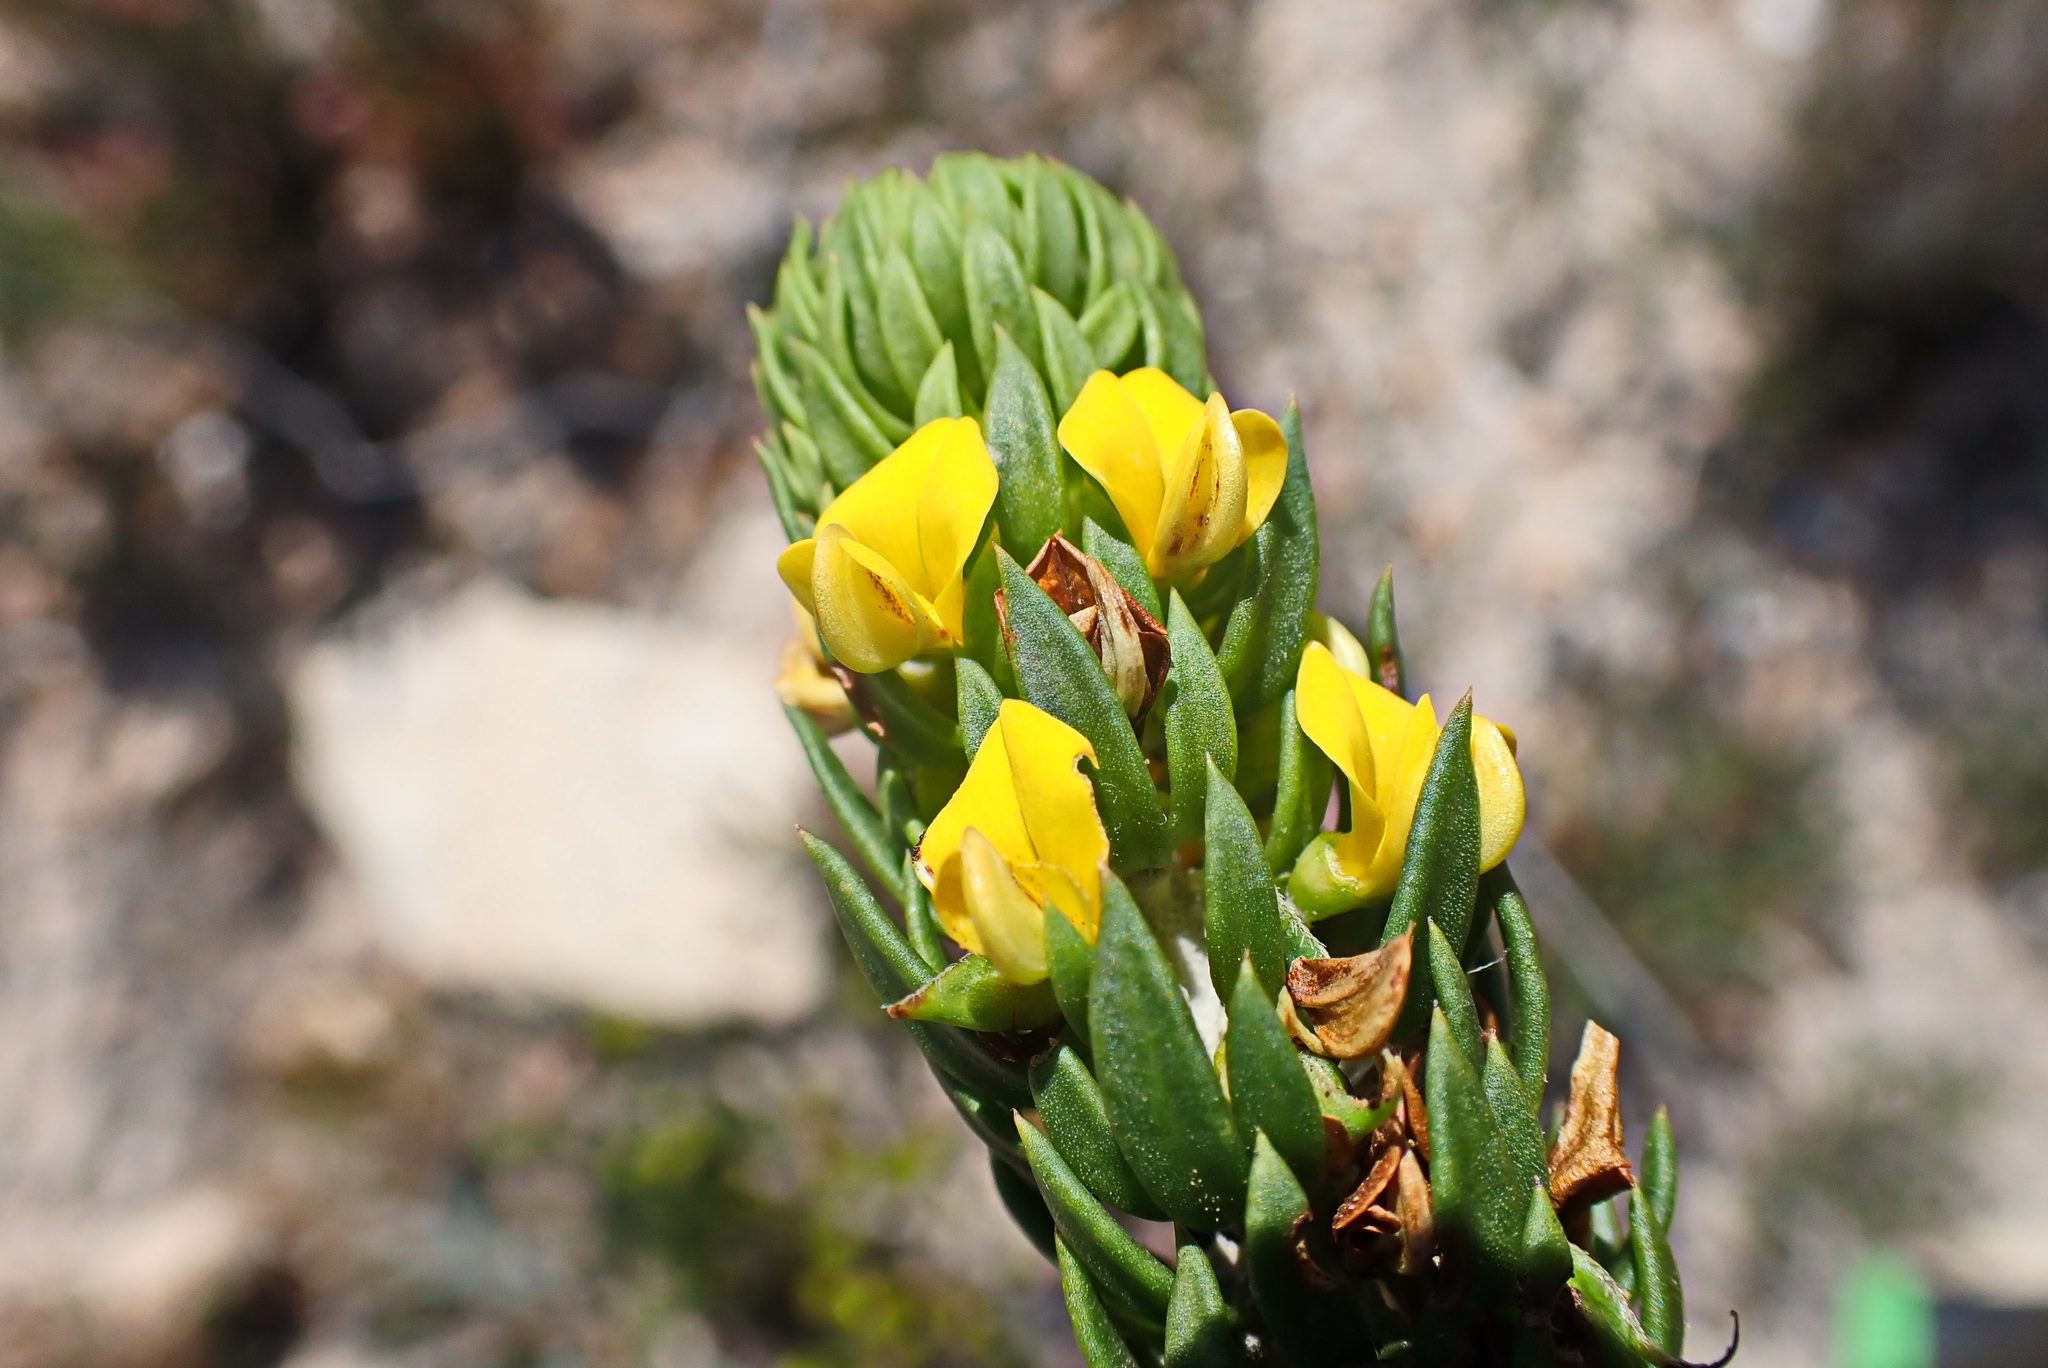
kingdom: Plantae
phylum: Tracheophyta
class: Magnoliopsida
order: Fabales
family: Fabaceae
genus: Aspalathus
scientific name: Aspalathus mundiana
